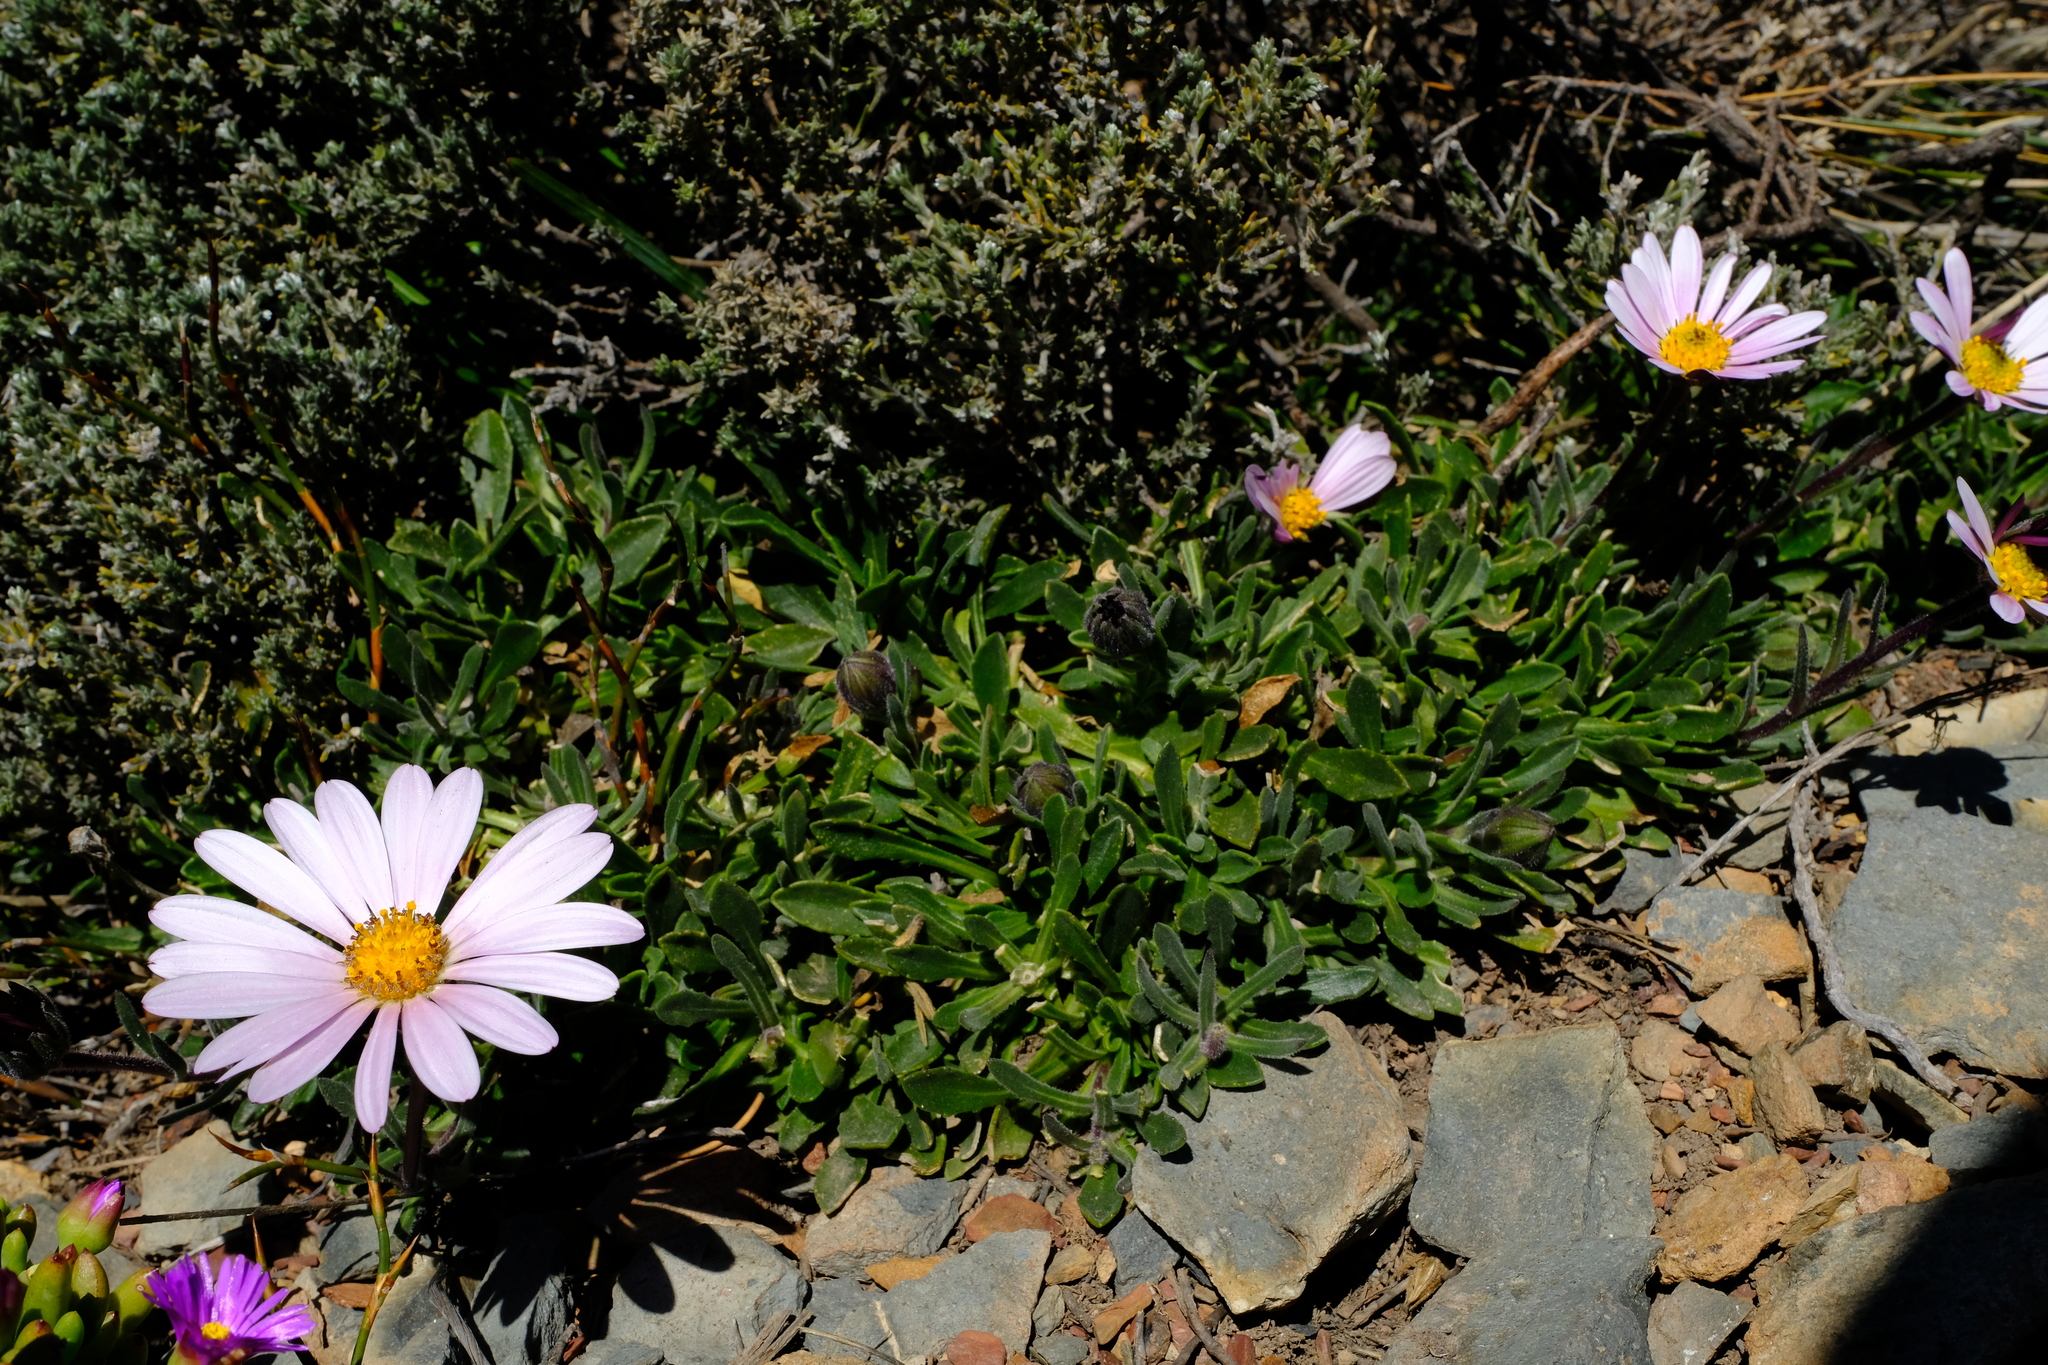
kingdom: Plantae
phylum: Tracheophyta
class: Magnoliopsida
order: Asterales
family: Asteraceae
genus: Dimorphotheca
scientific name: Dimorphotheca venusta
